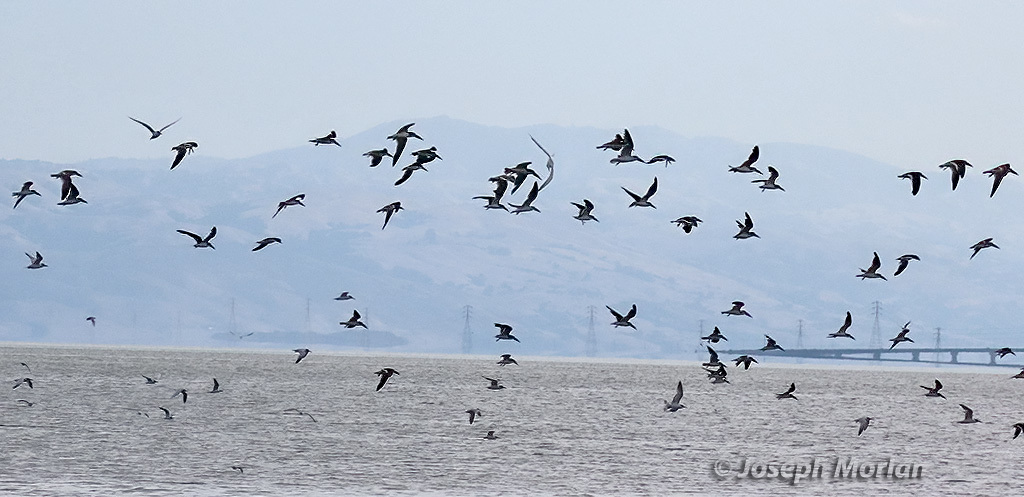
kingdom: Animalia
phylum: Chordata
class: Aves
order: Charadriiformes
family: Laridae
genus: Rynchops
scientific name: Rynchops niger
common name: Black skimmer
